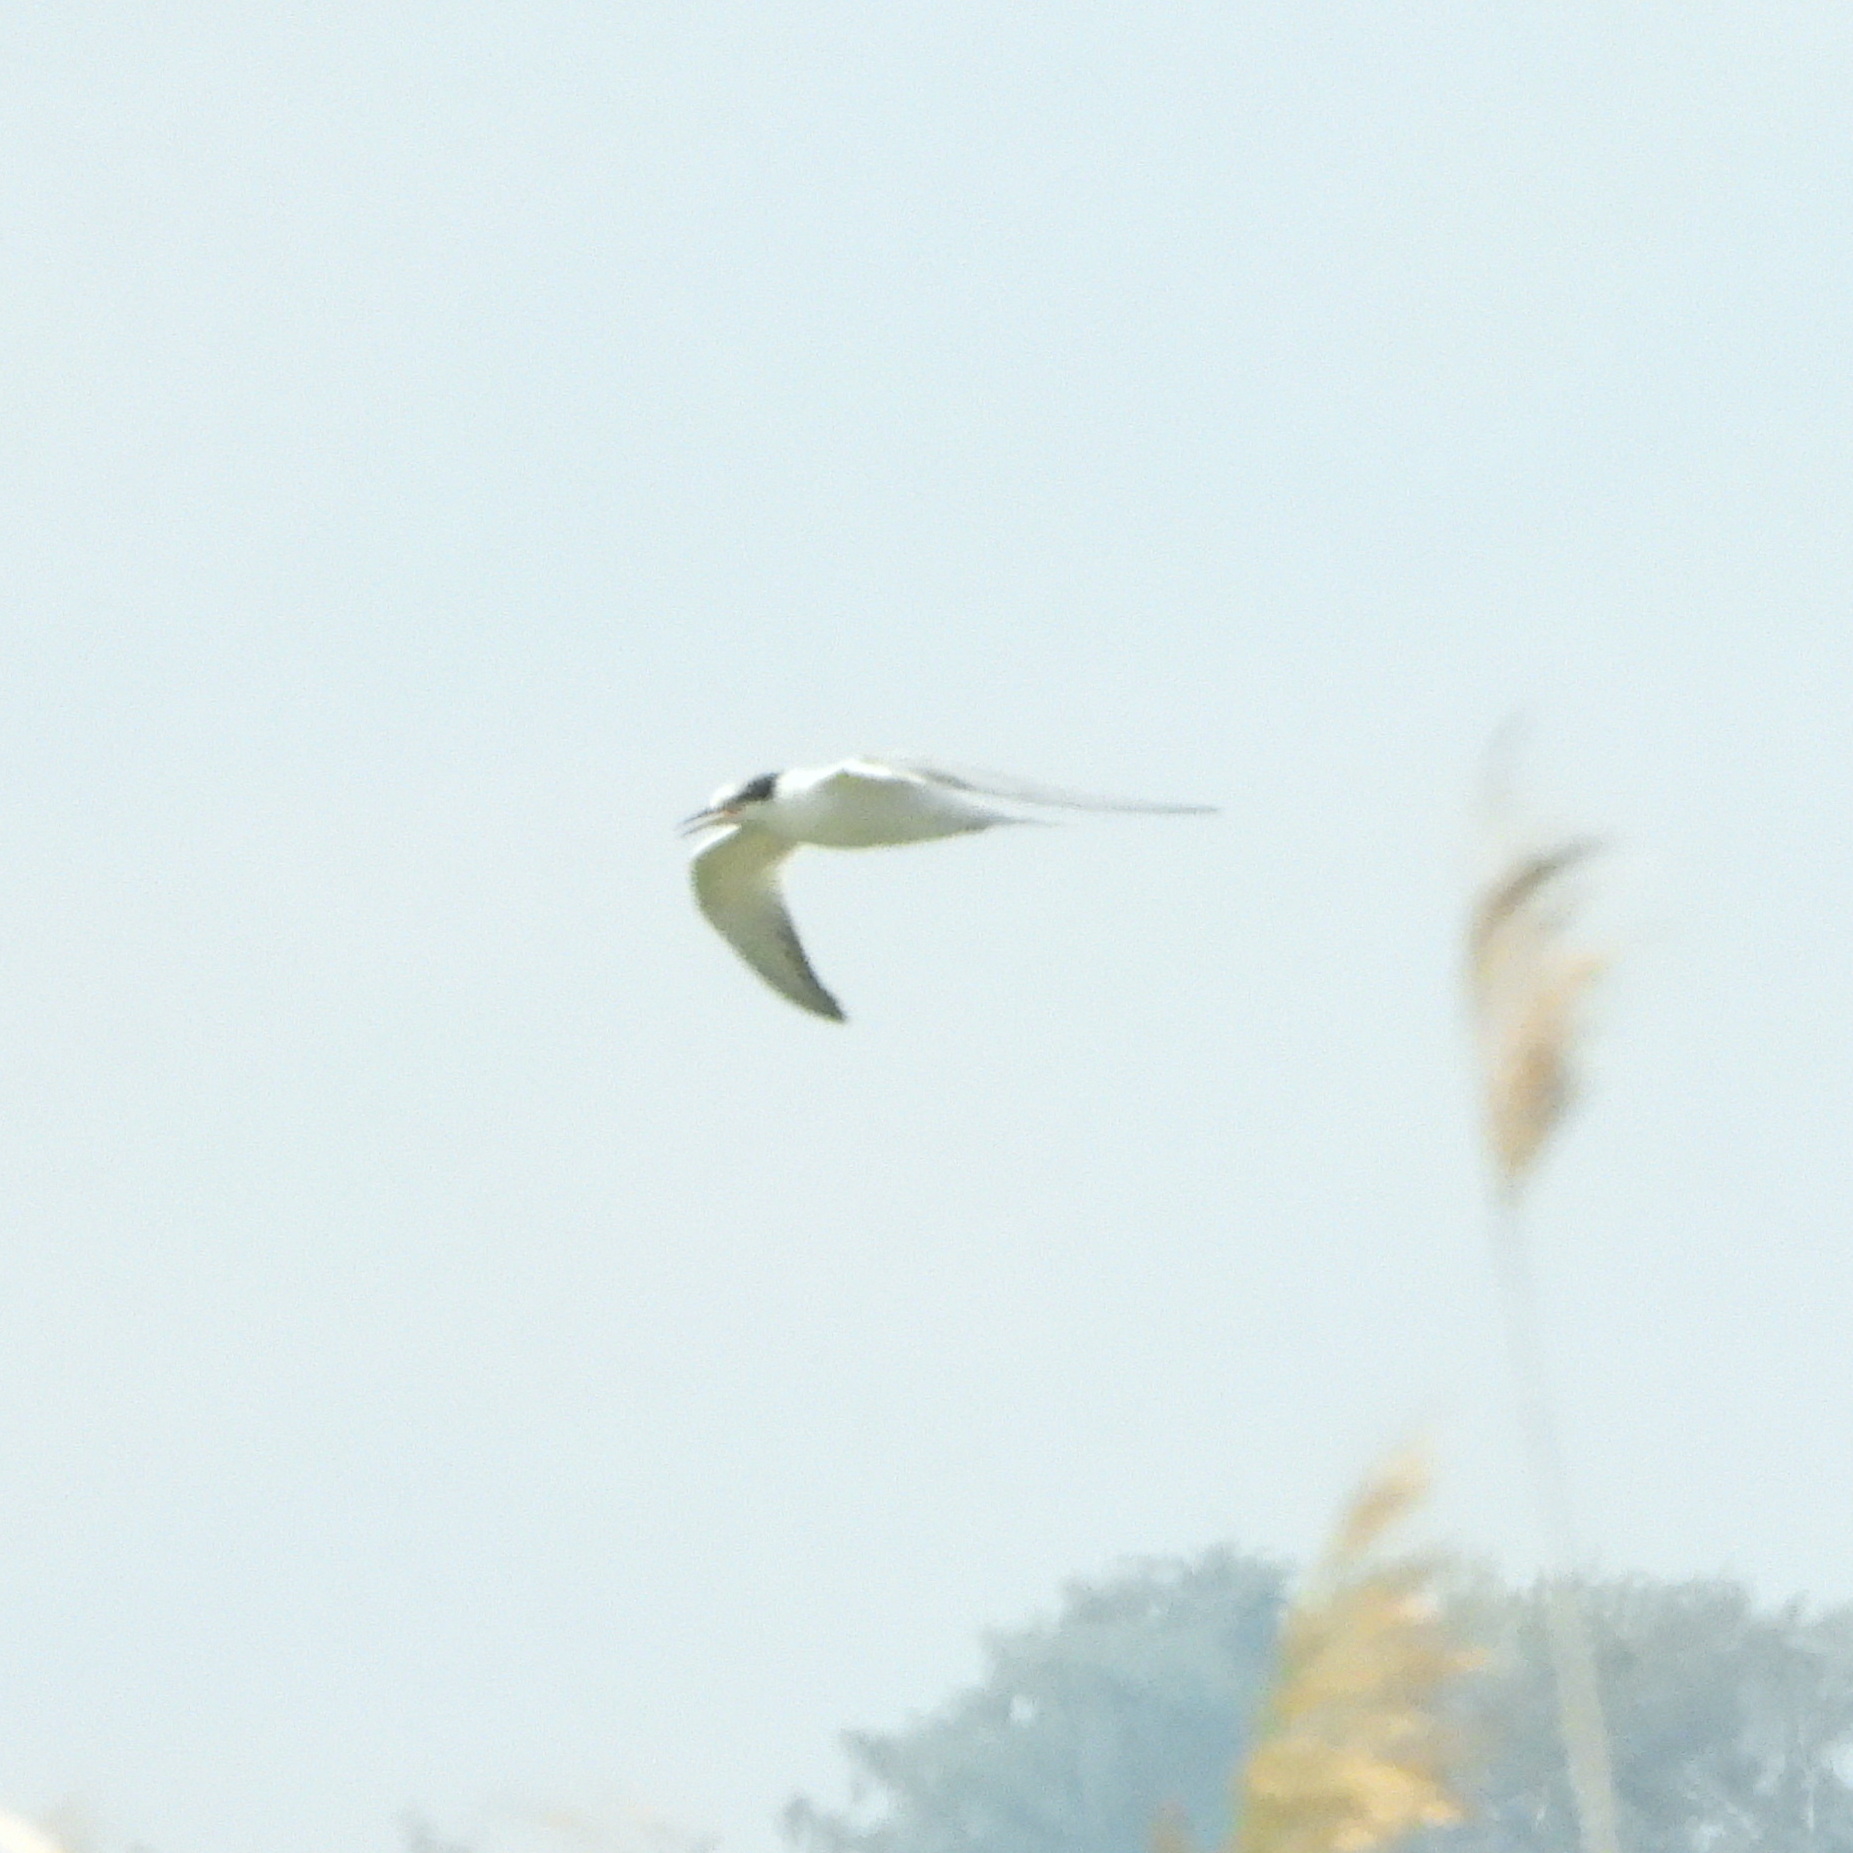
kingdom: Animalia
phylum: Chordata
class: Aves
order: Charadriiformes
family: Laridae
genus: Sterna
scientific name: Sterna hirundo
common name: Common tern
